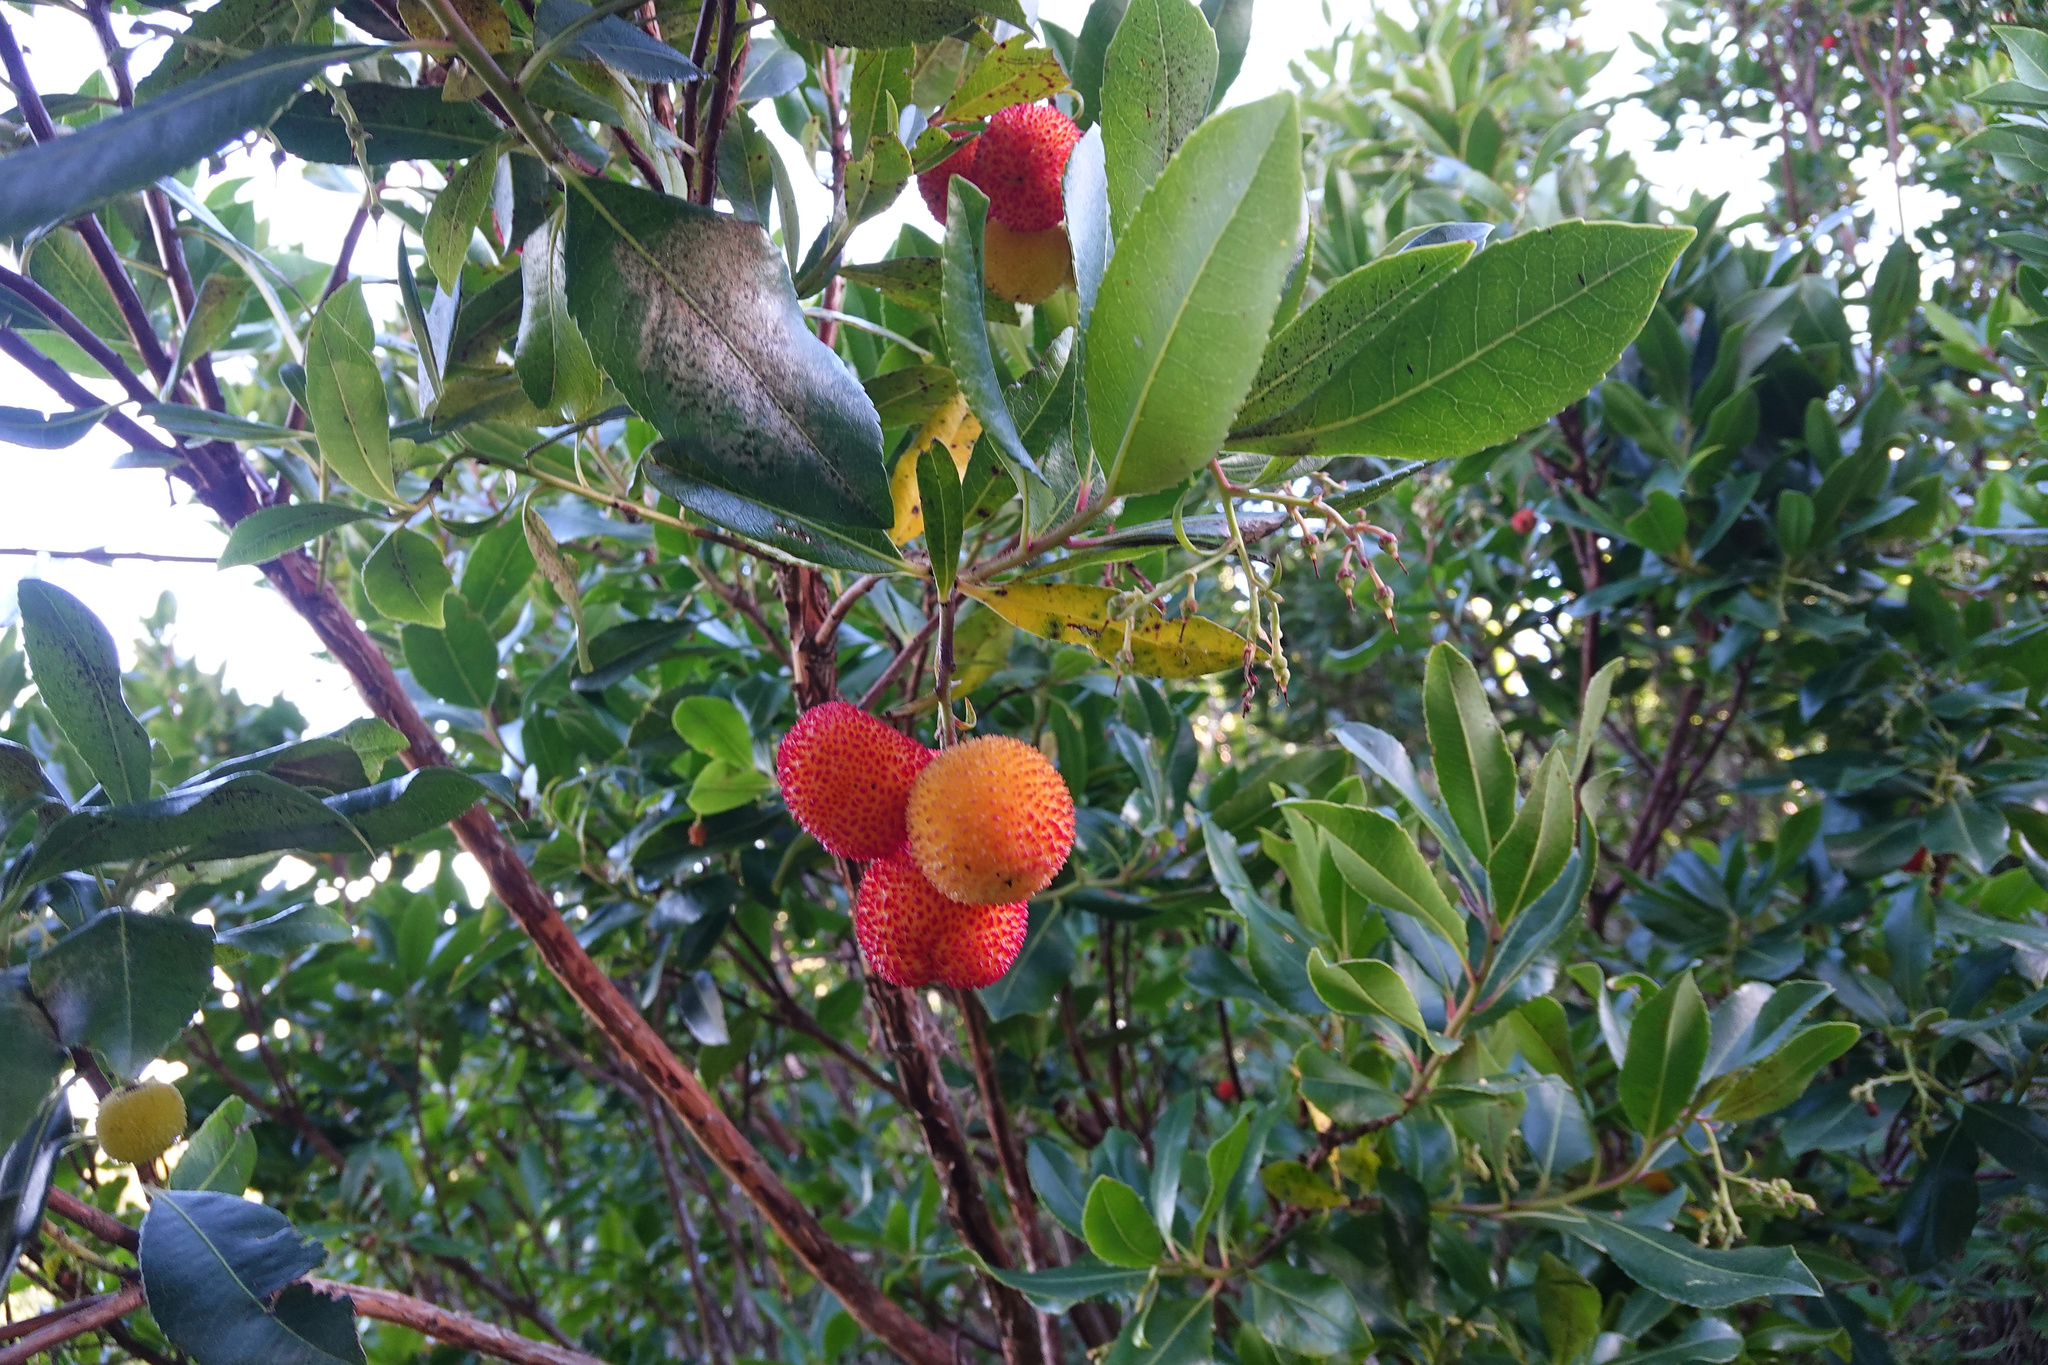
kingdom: Plantae
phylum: Tracheophyta
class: Magnoliopsida
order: Ericales
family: Ericaceae
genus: Arbutus
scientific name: Arbutus unedo
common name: Strawberry-tree
